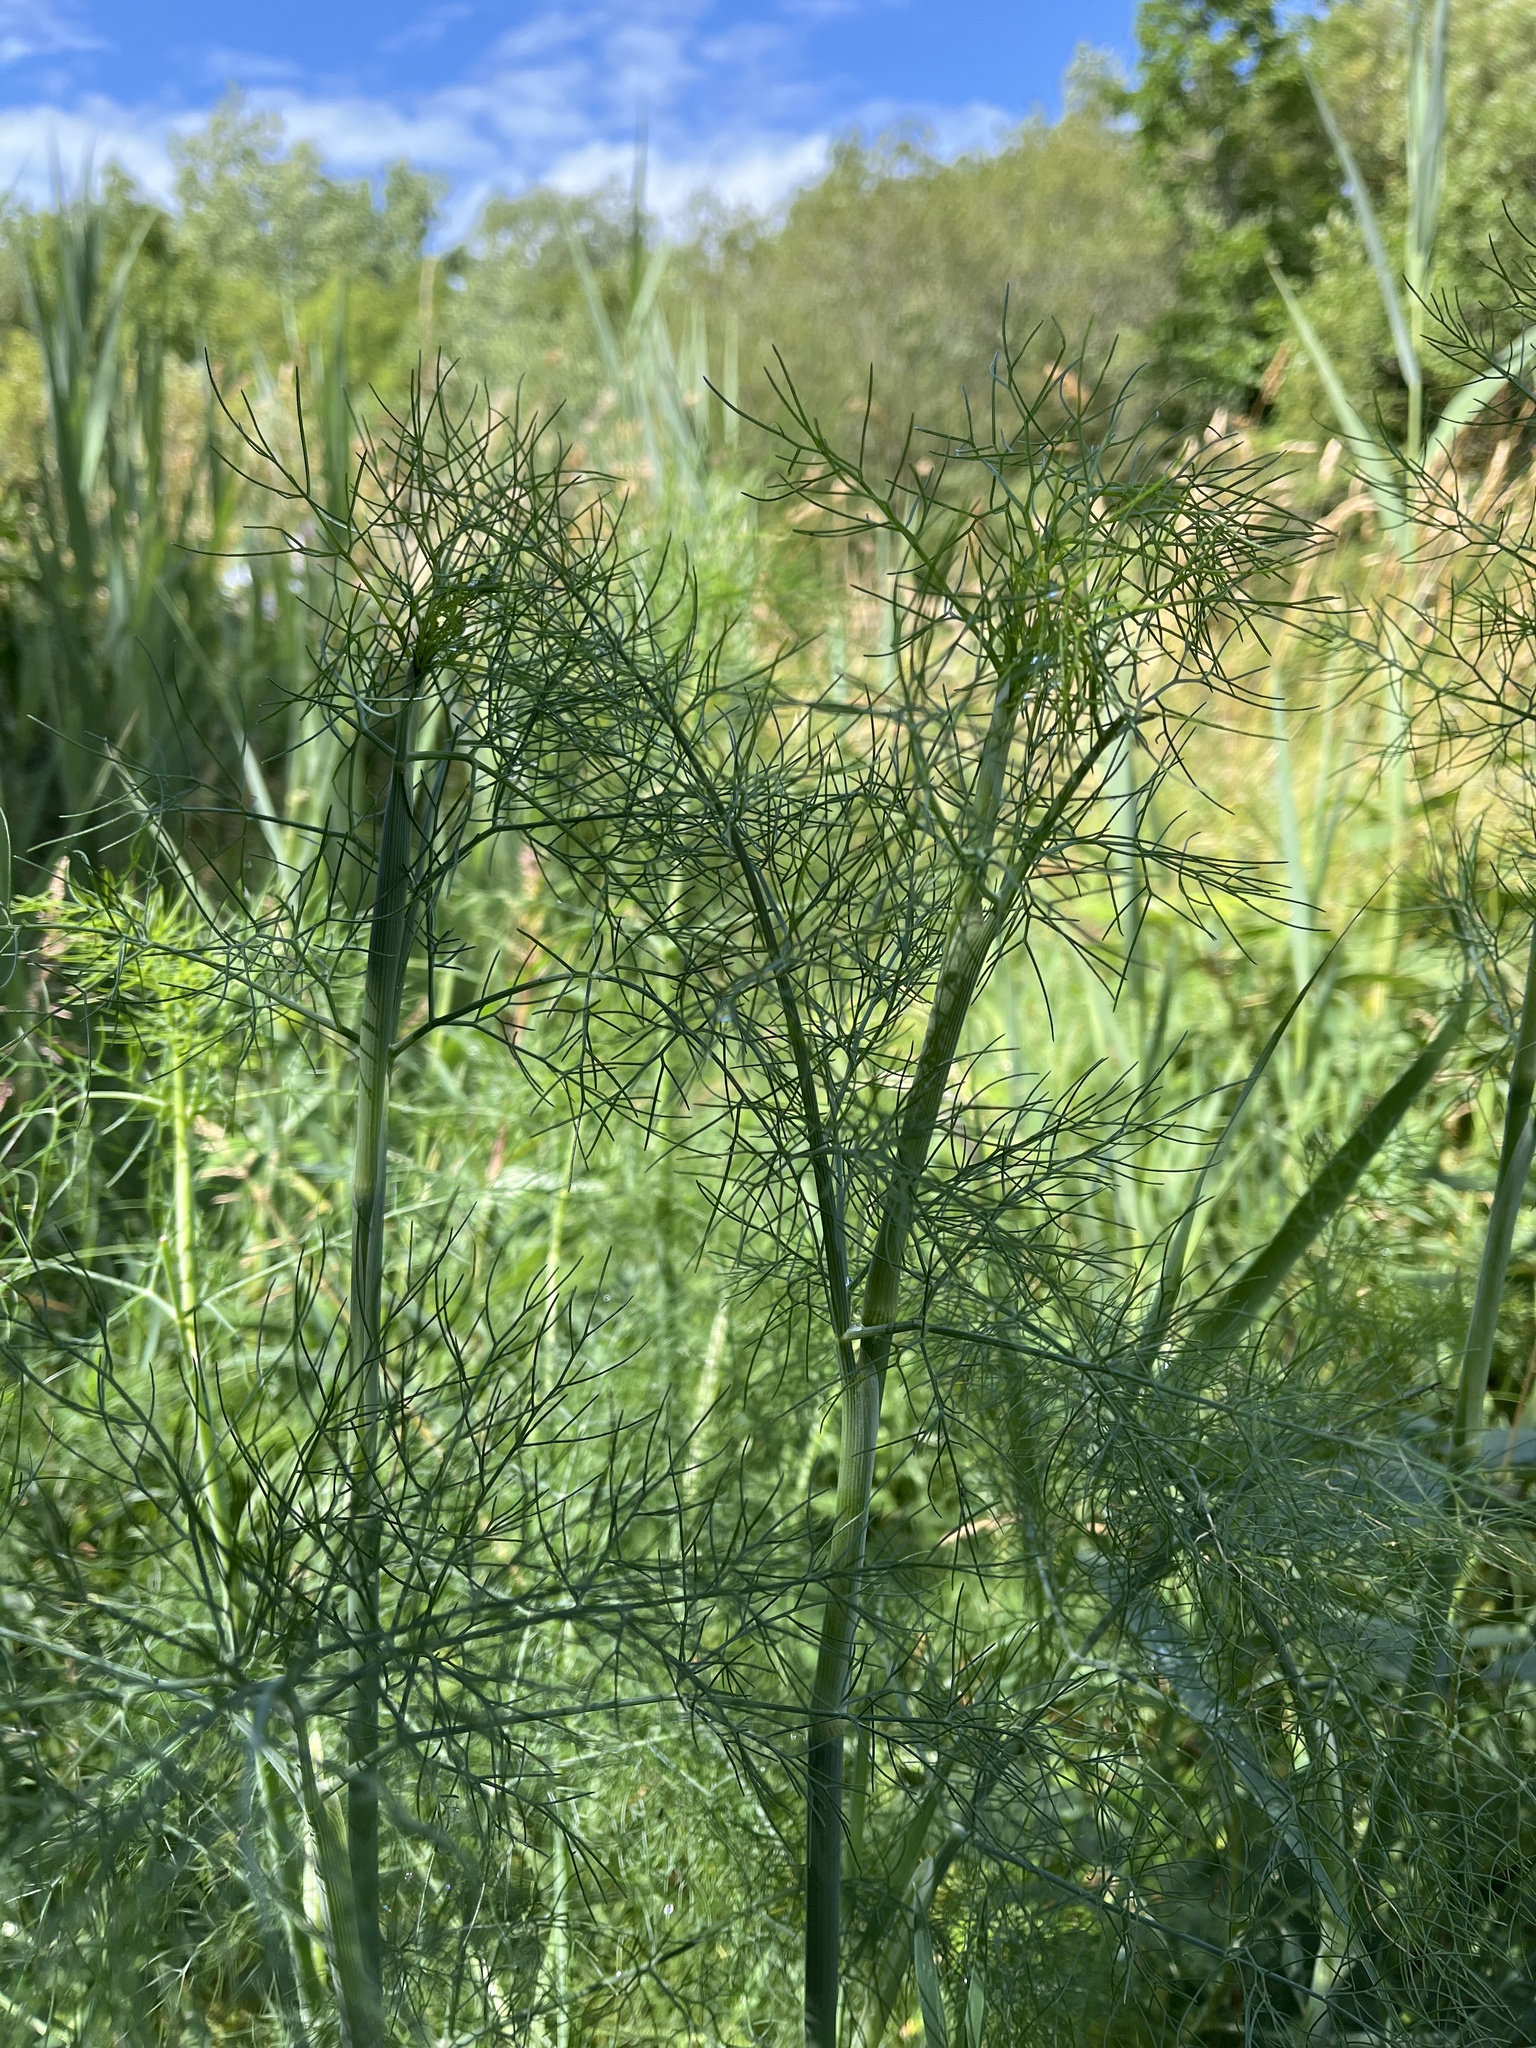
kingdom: Plantae
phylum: Tracheophyta
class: Magnoliopsida
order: Apiales
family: Apiaceae
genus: Foeniculum
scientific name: Foeniculum vulgare
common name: Fennel
